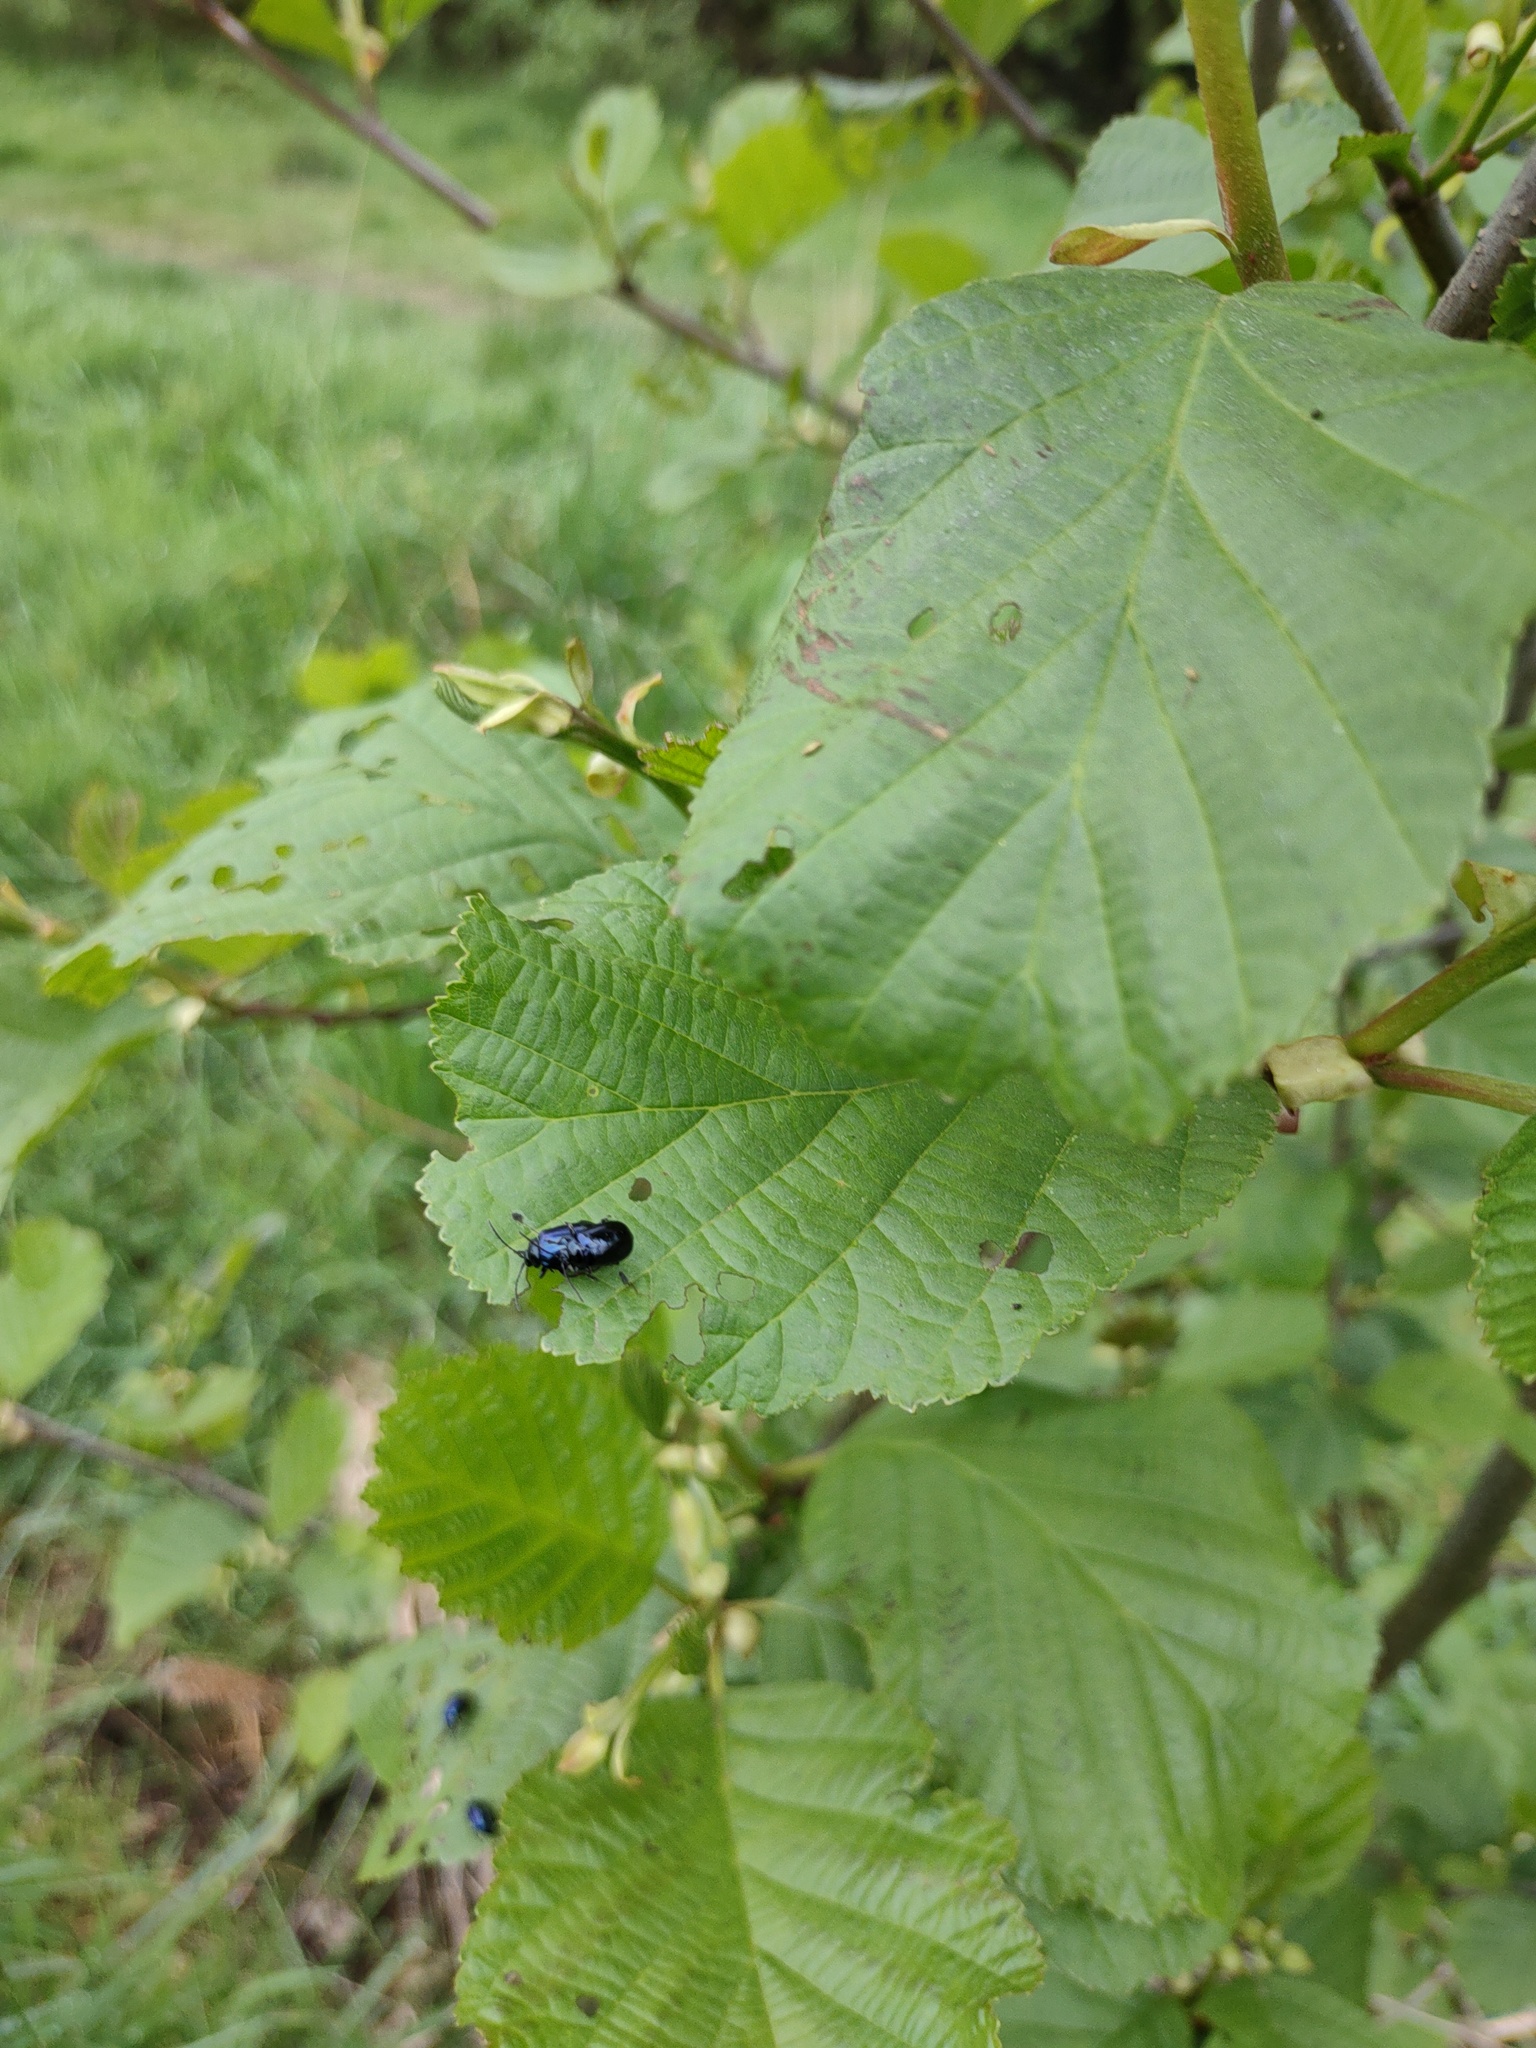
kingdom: Animalia
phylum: Arthropoda
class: Insecta
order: Coleoptera
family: Chrysomelidae
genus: Agelastica
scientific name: Agelastica alni
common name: Alder leaf beetle
